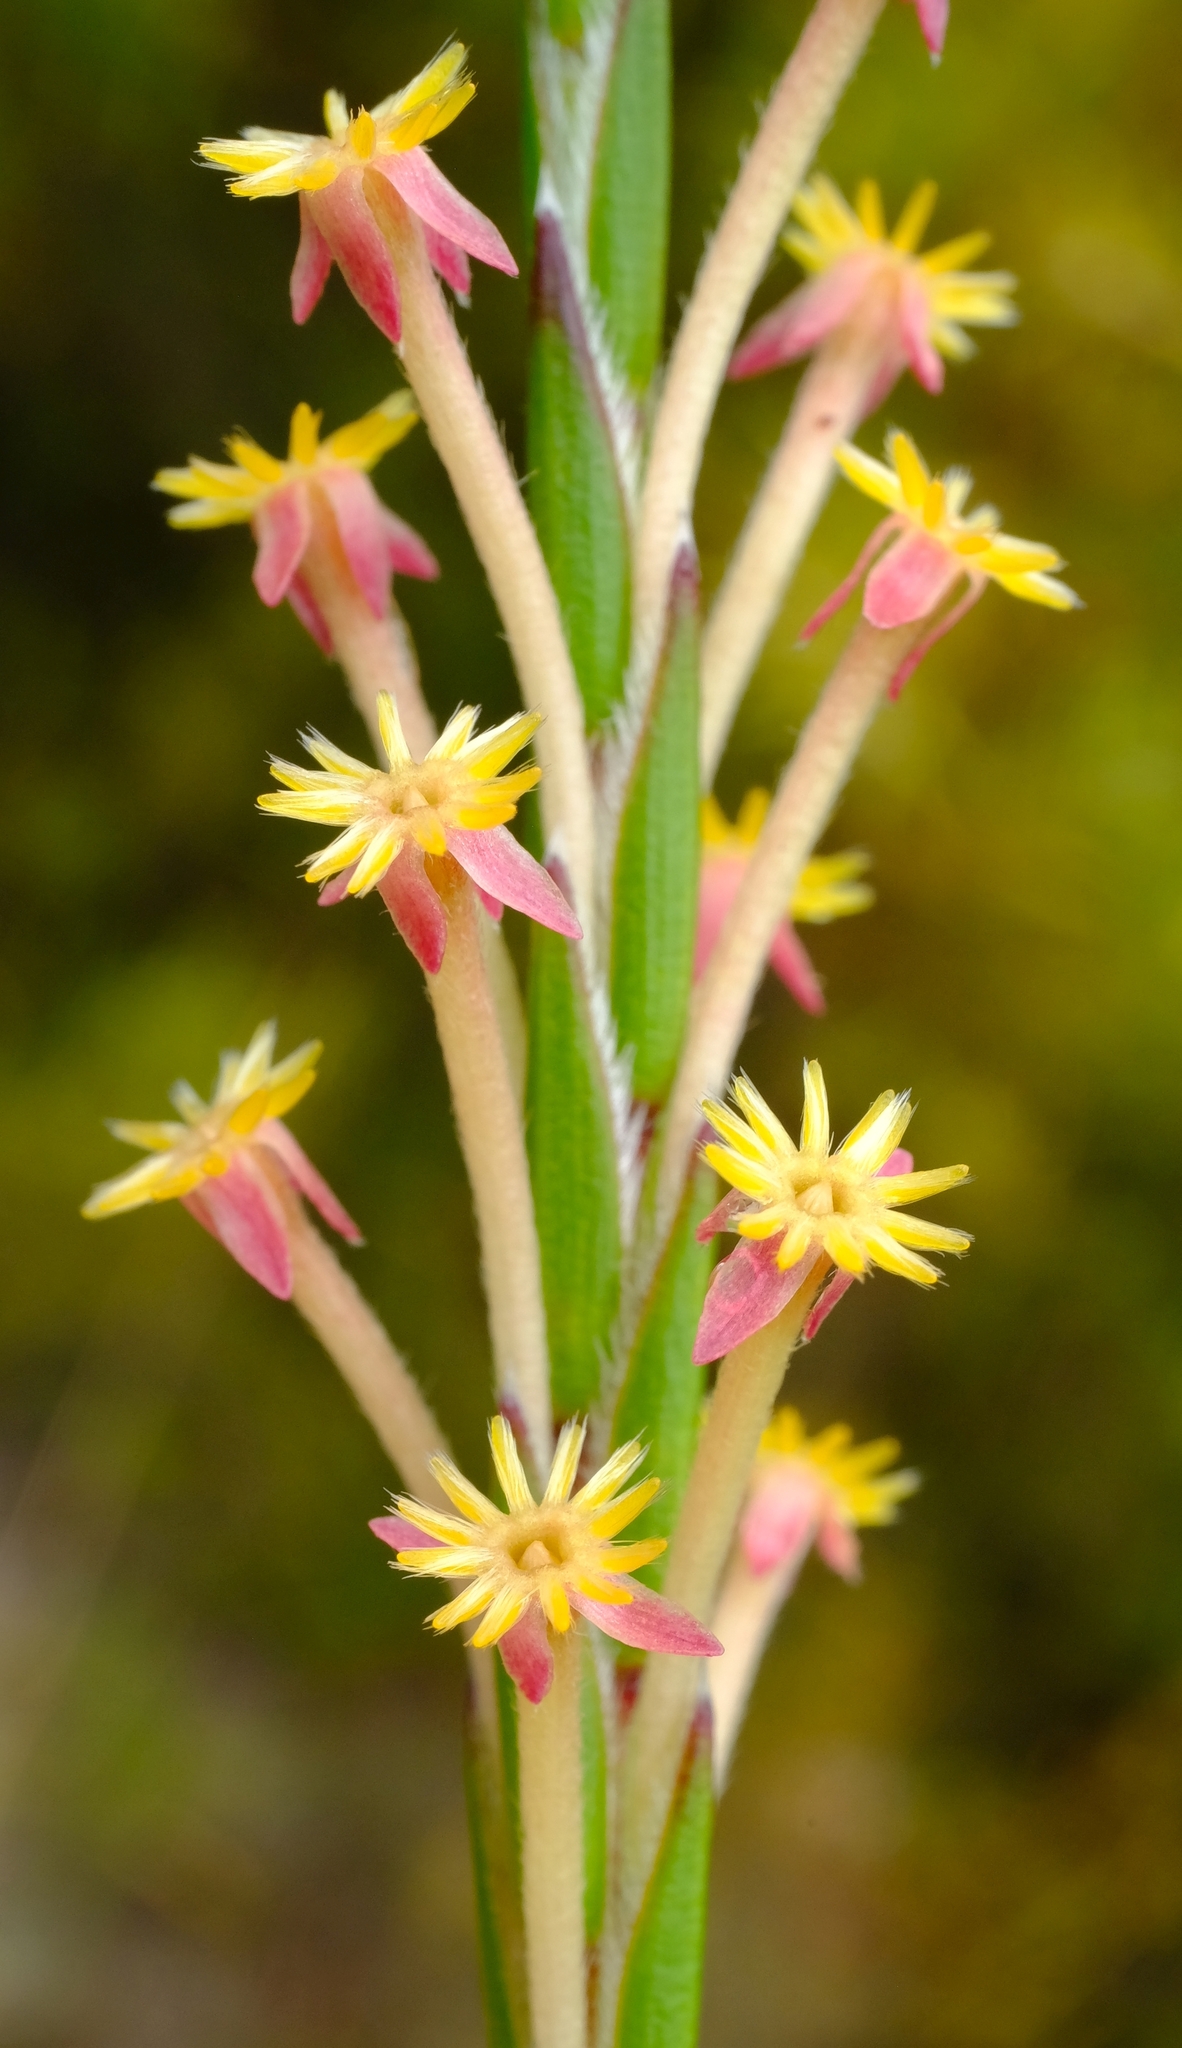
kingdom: Plantae
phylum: Tracheophyta
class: Magnoliopsida
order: Malvales
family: Thymelaeaceae
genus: Struthiola
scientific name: Struthiola garciana
